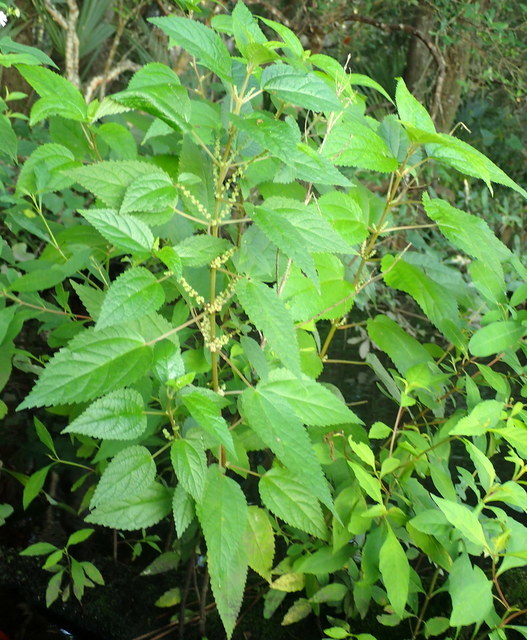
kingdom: Plantae
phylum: Tracheophyta
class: Magnoliopsida
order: Rosales
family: Urticaceae
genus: Boehmeria
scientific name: Boehmeria cylindrica
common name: Bog-hemp
